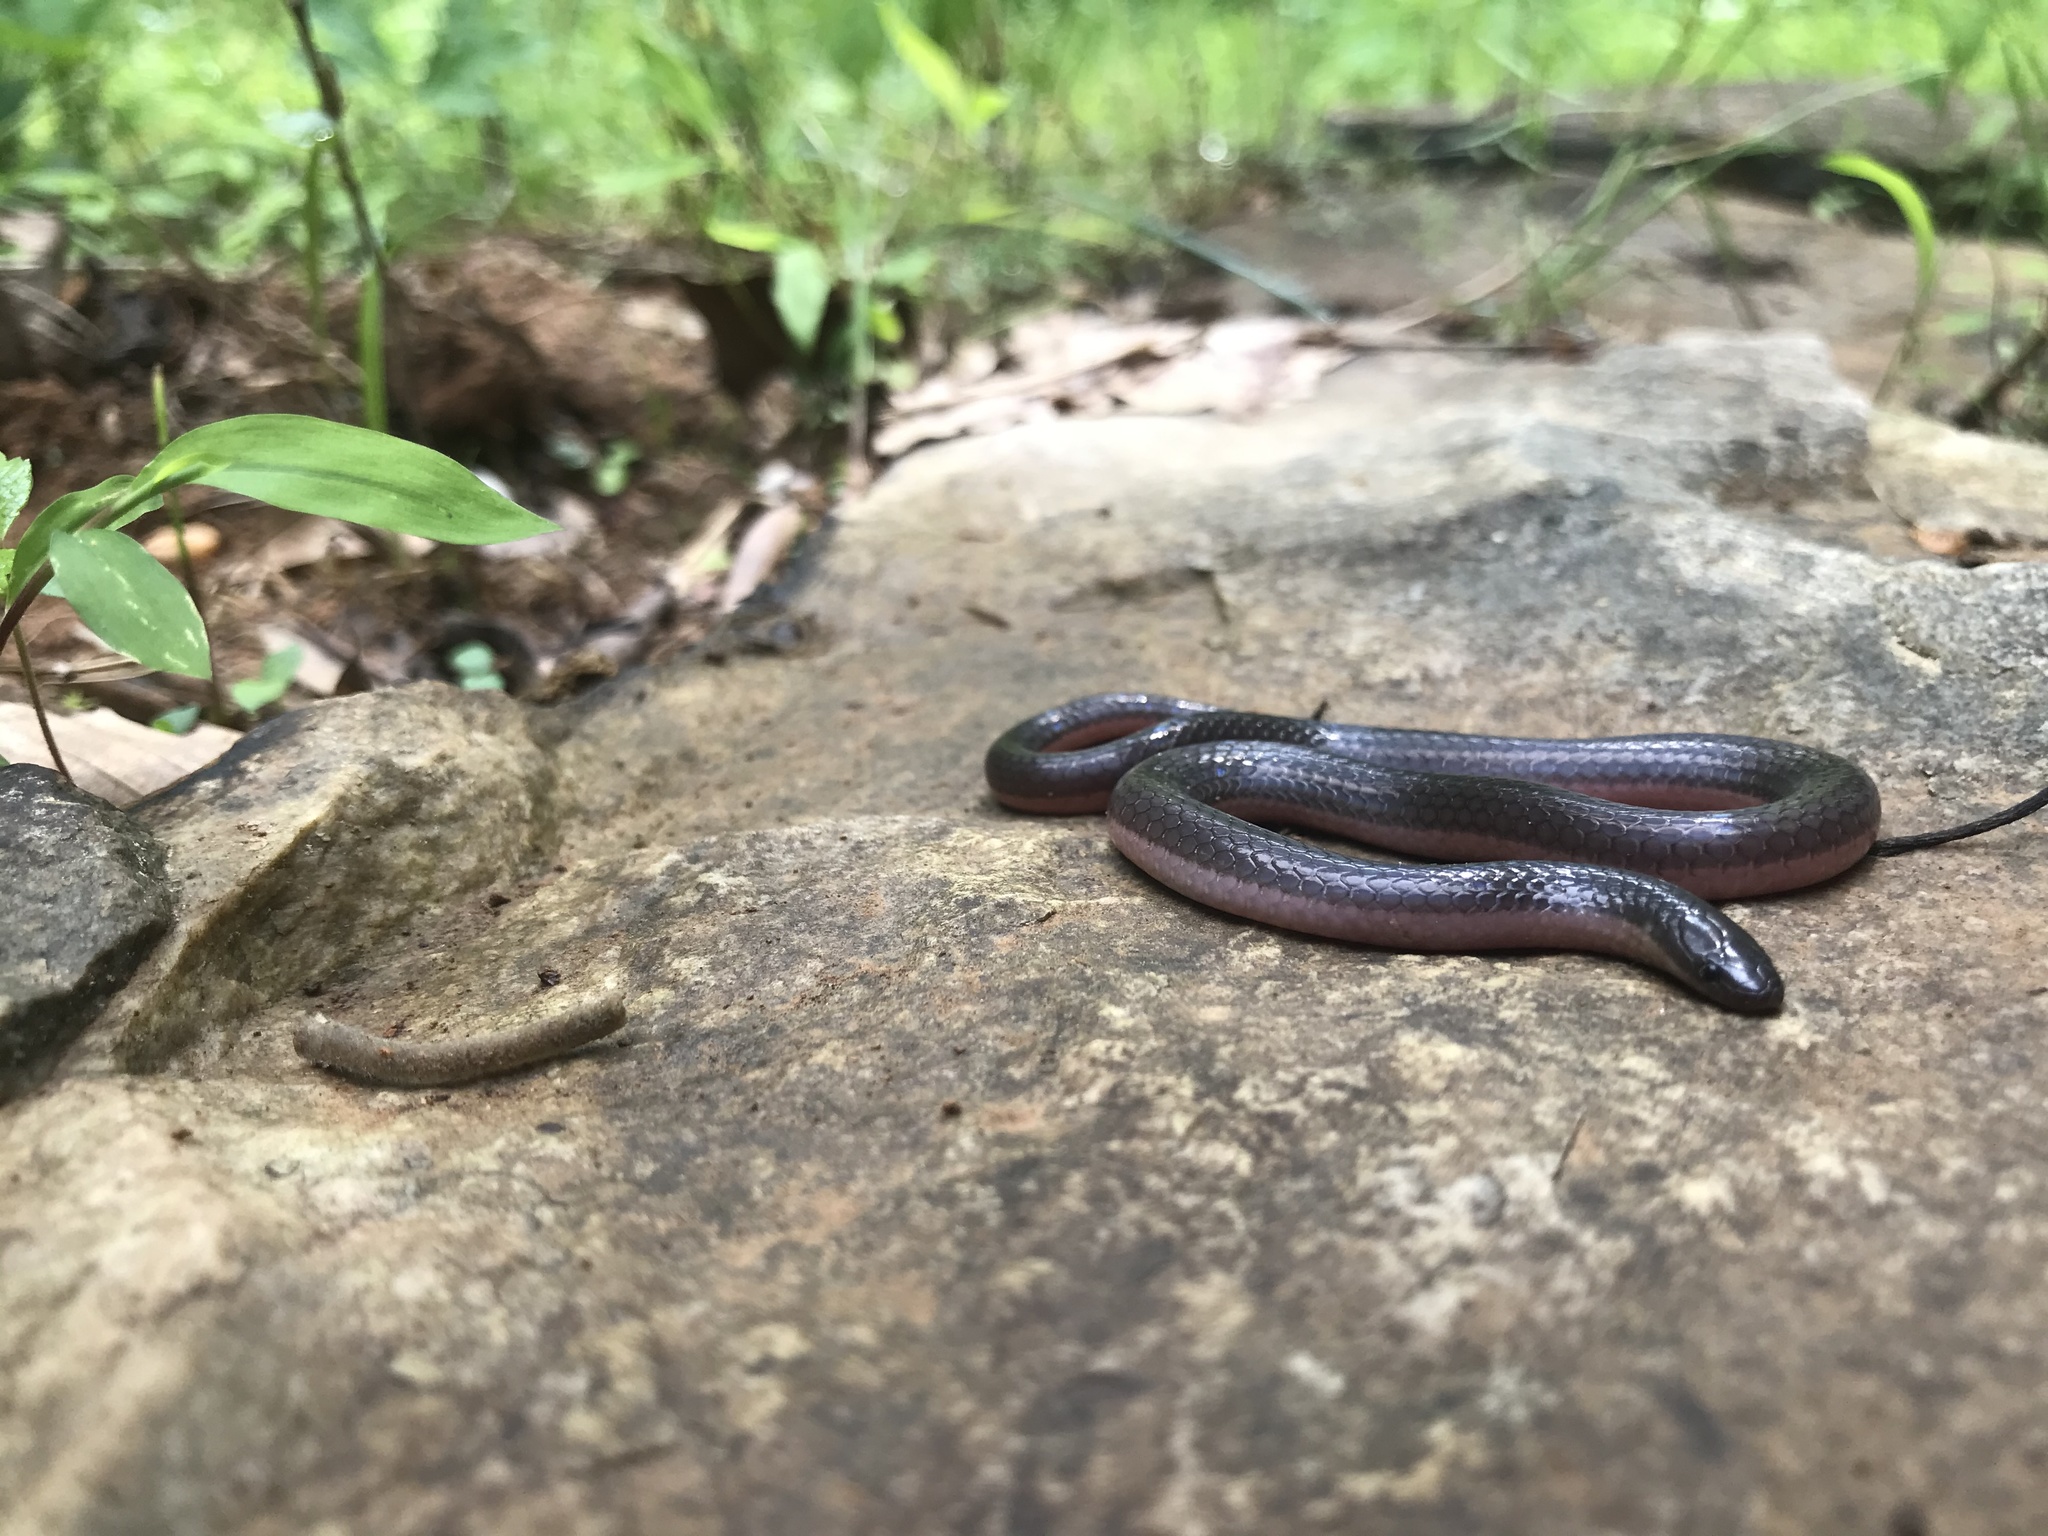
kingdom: Animalia
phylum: Chordata
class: Squamata
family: Colubridae
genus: Carphophis
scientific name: Carphophis amoenus
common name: Eastern worm snake
